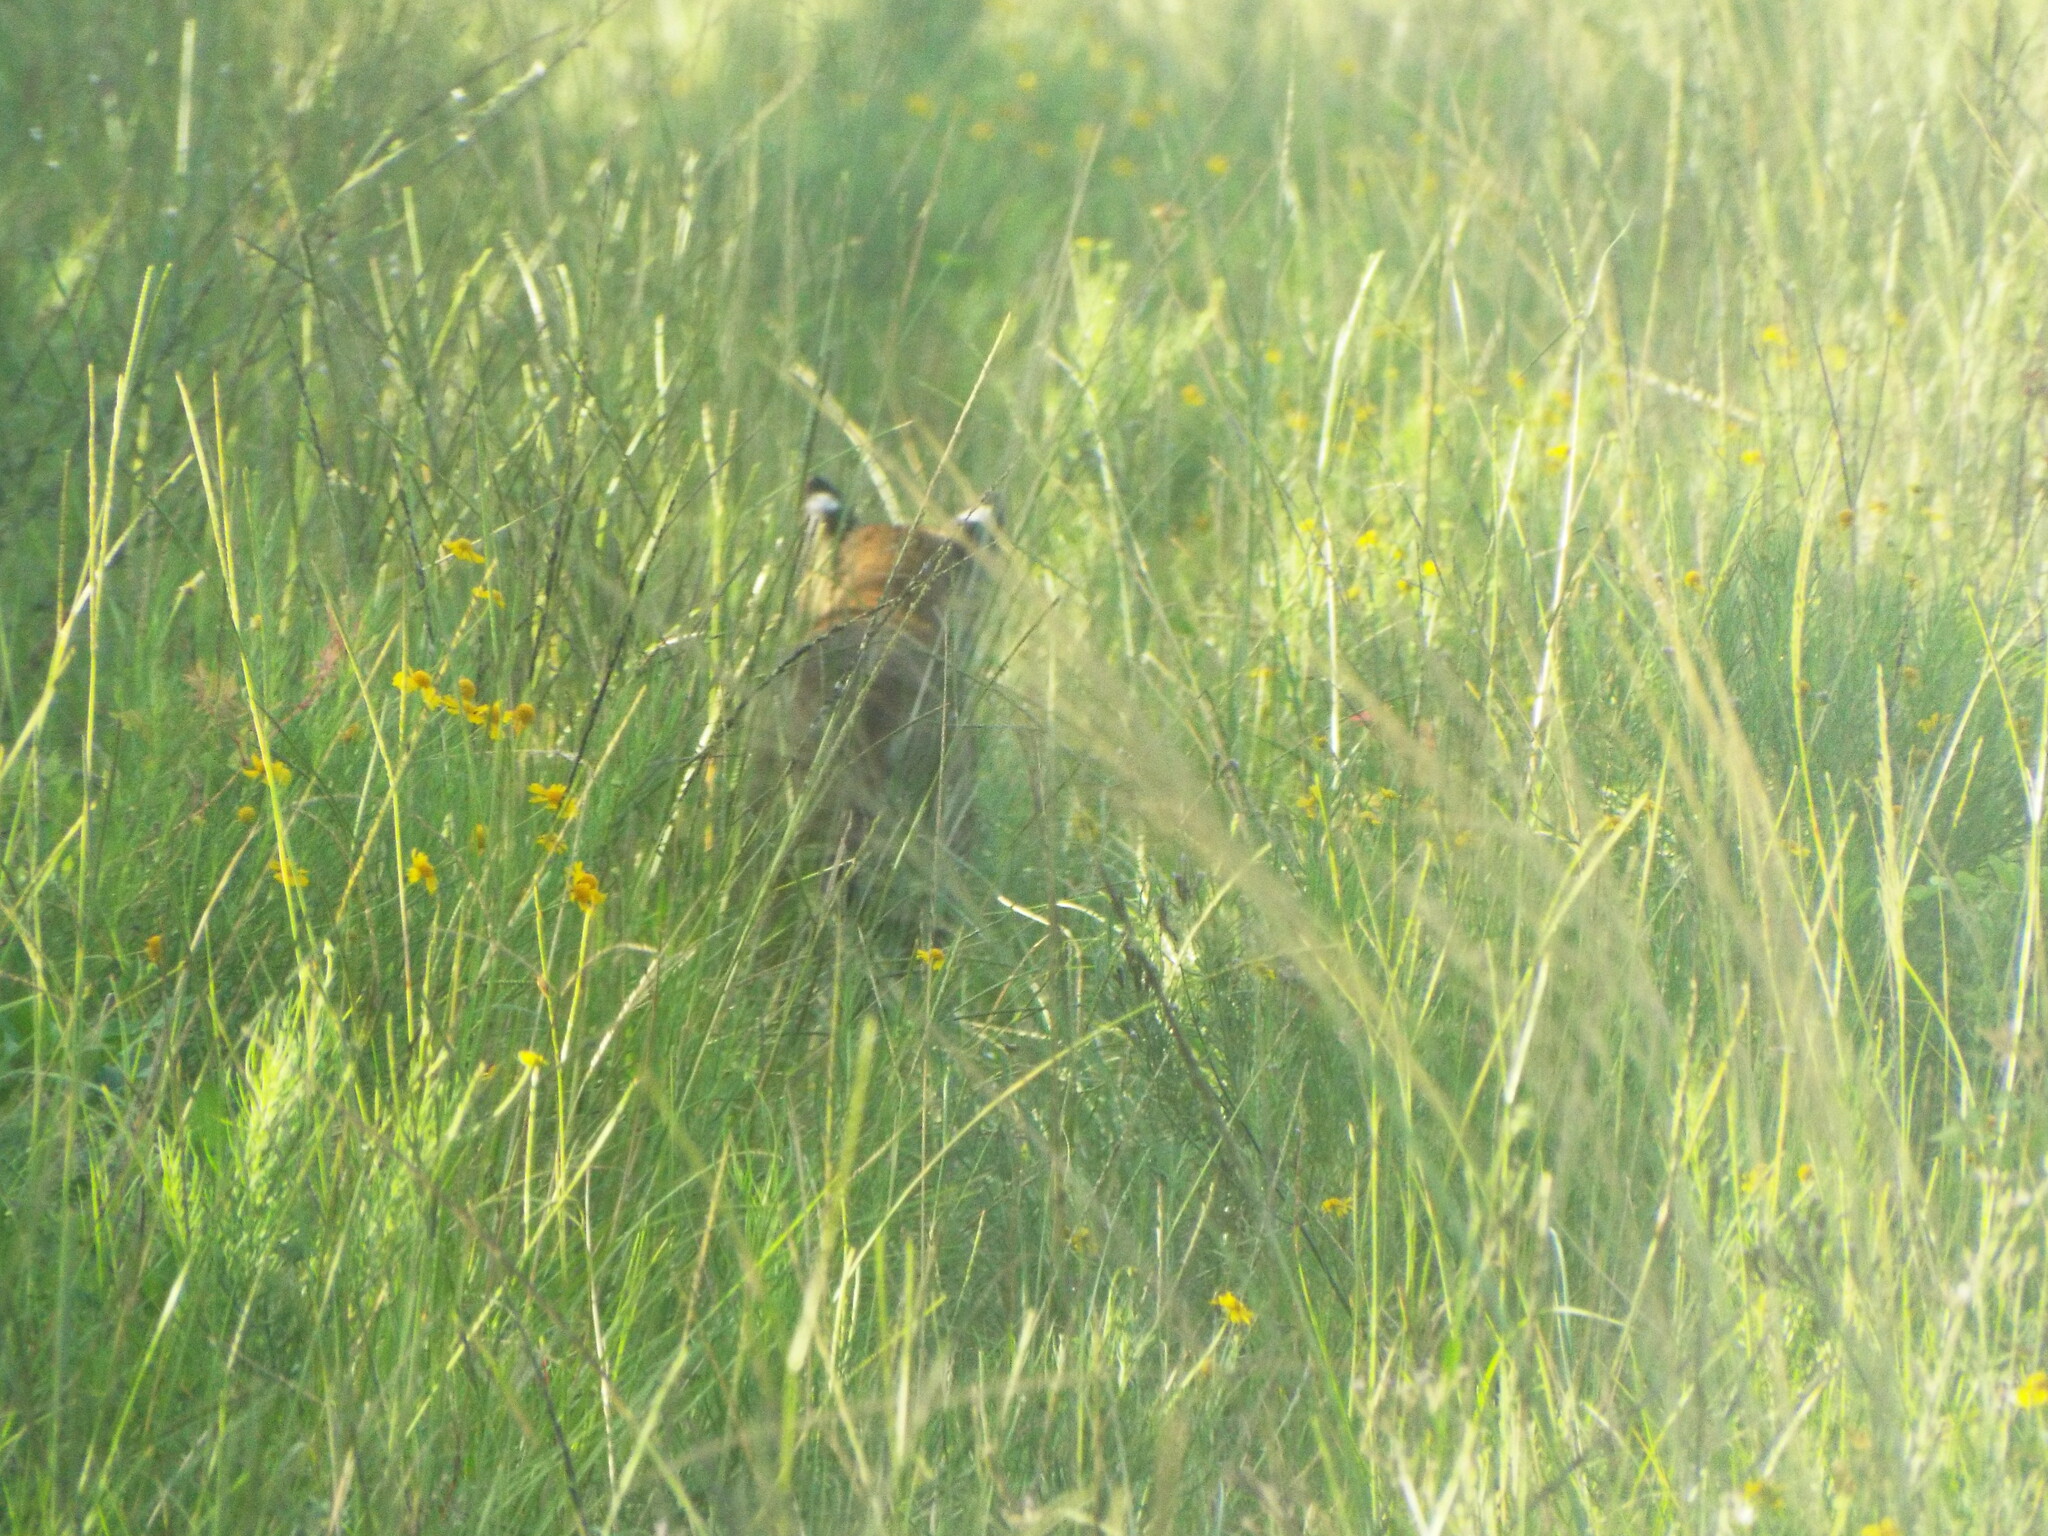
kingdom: Animalia
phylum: Chordata
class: Mammalia
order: Carnivora
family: Felidae
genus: Lynx
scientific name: Lynx rufus
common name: Bobcat
